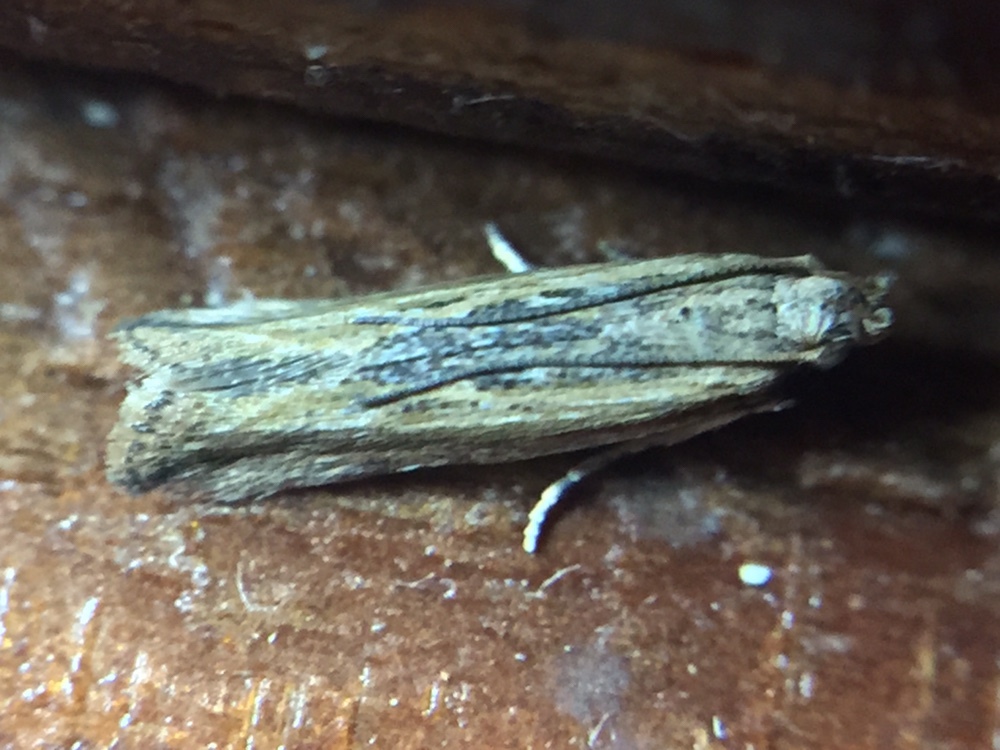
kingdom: Animalia
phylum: Arthropoda
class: Insecta
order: Lepidoptera
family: Gelechiidae
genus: Symmetrischema
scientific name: Symmetrischema striatella
